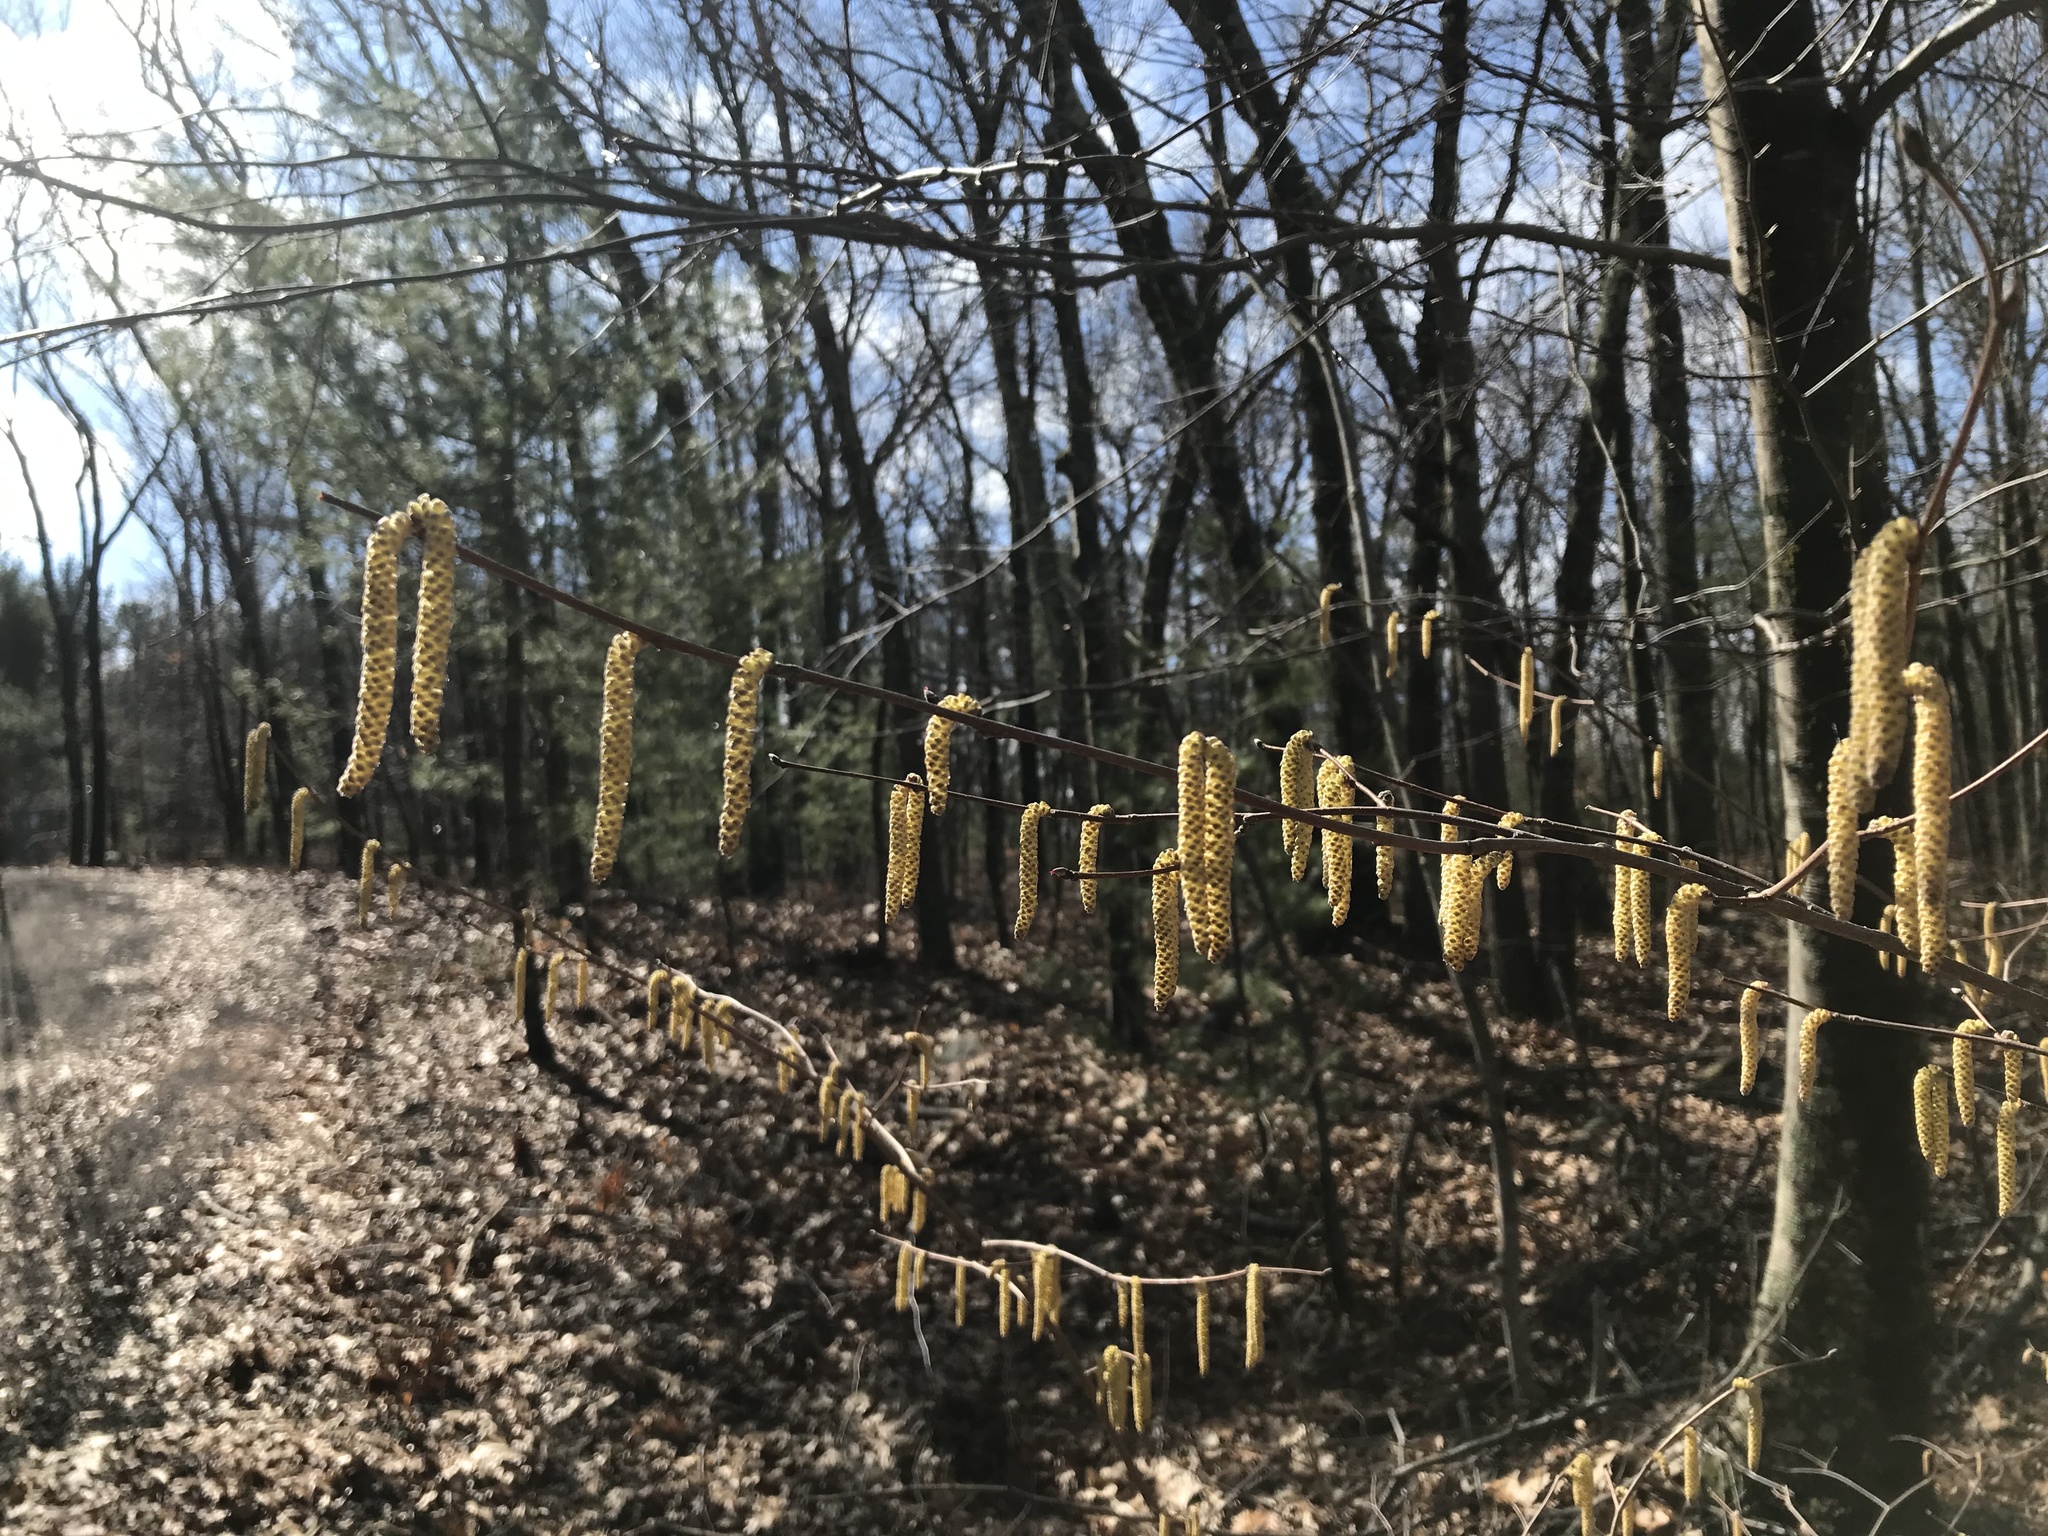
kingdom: Plantae
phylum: Tracheophyta
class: Magnoliopsida
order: Fagales
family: Betulaceae
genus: Corylus
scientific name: Corylus cornuta
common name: Beaked hazel
